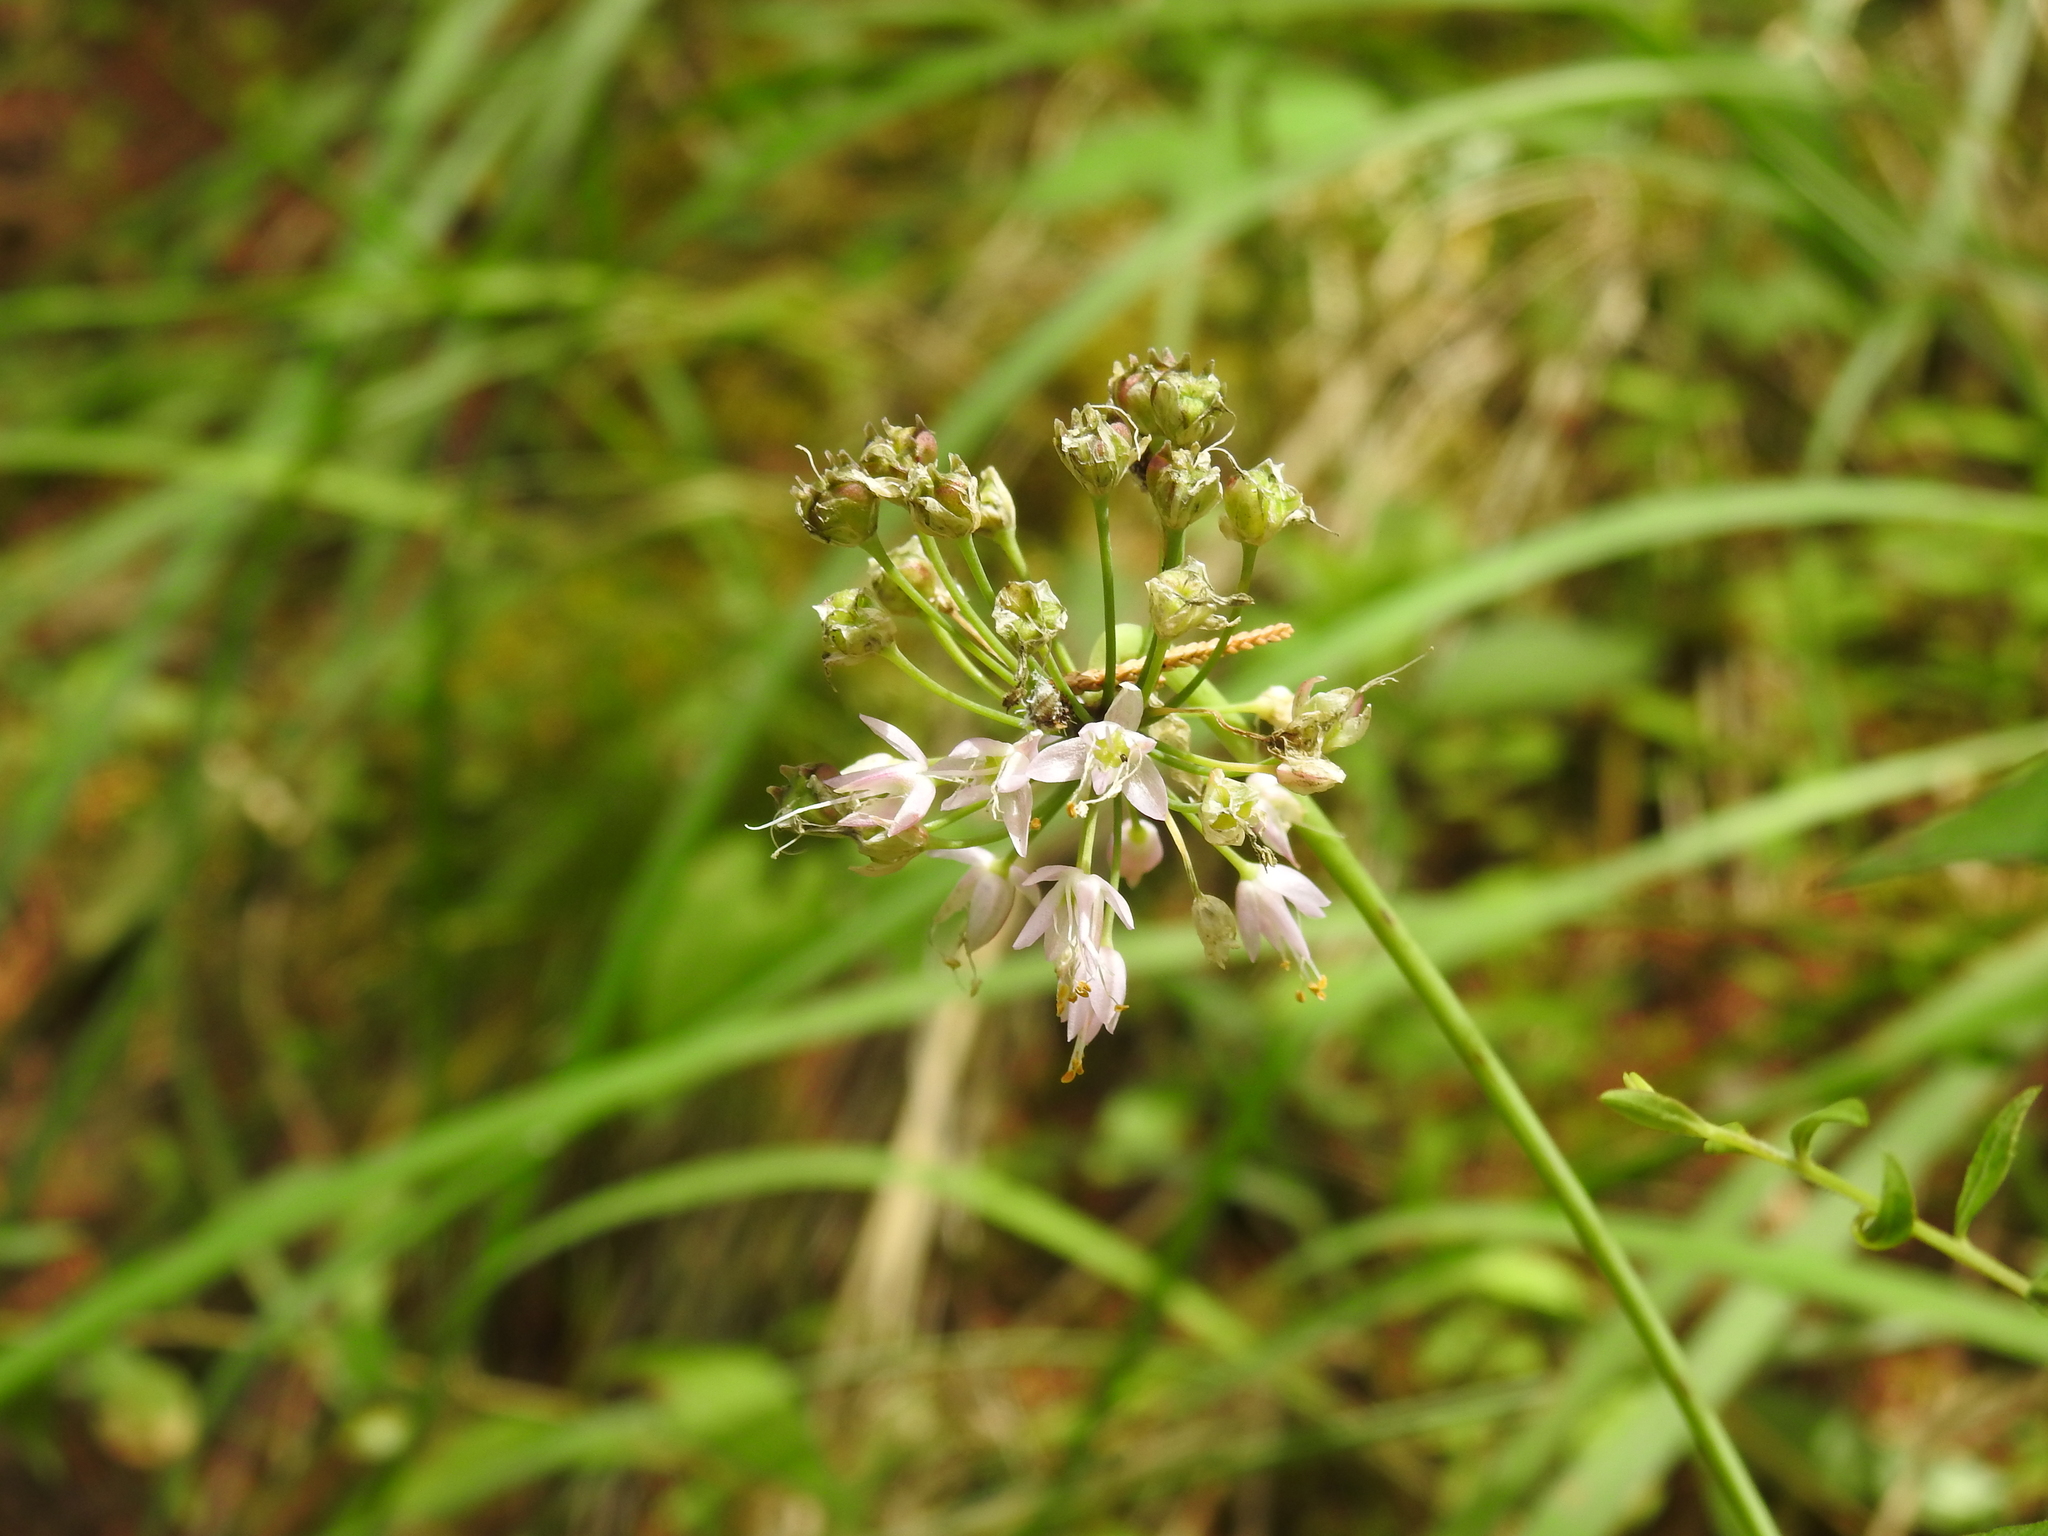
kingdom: Plantae
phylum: Tracheophyta
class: Liliopsida
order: Asparagales
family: Amaryllidaceae
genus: Allium
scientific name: Allium cernuum
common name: Nodding onion
